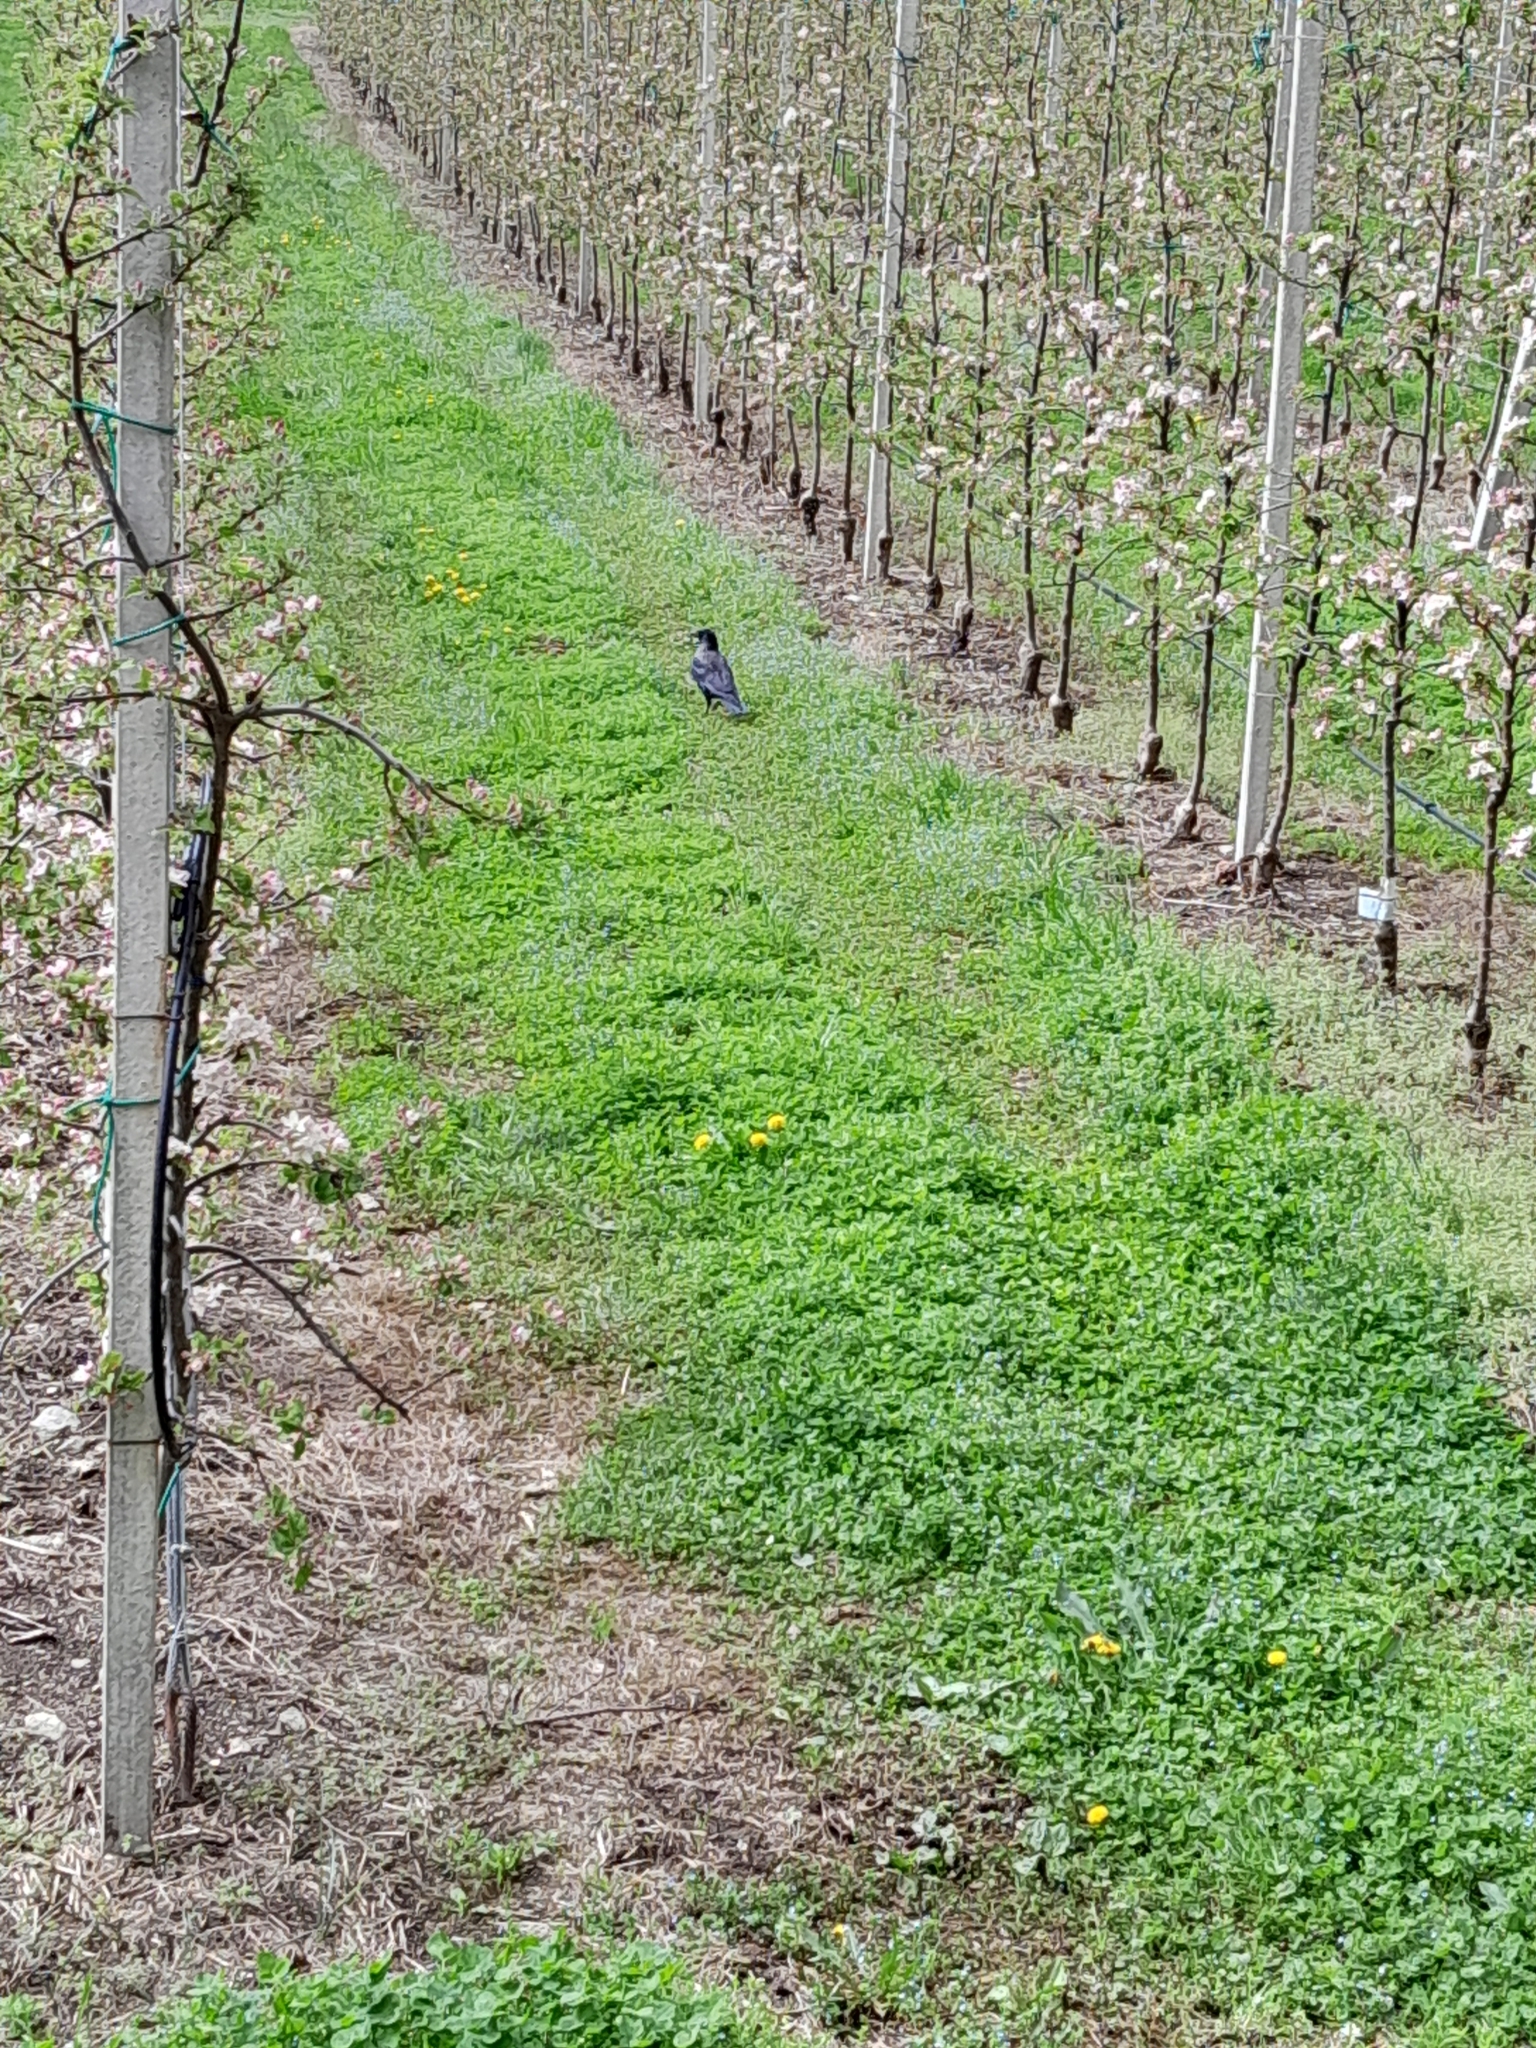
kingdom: Animalia
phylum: Chordata
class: Aves
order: Passeriformes
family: Corvidae
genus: Corvus
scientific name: Corvus cornix
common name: Hooded crow
